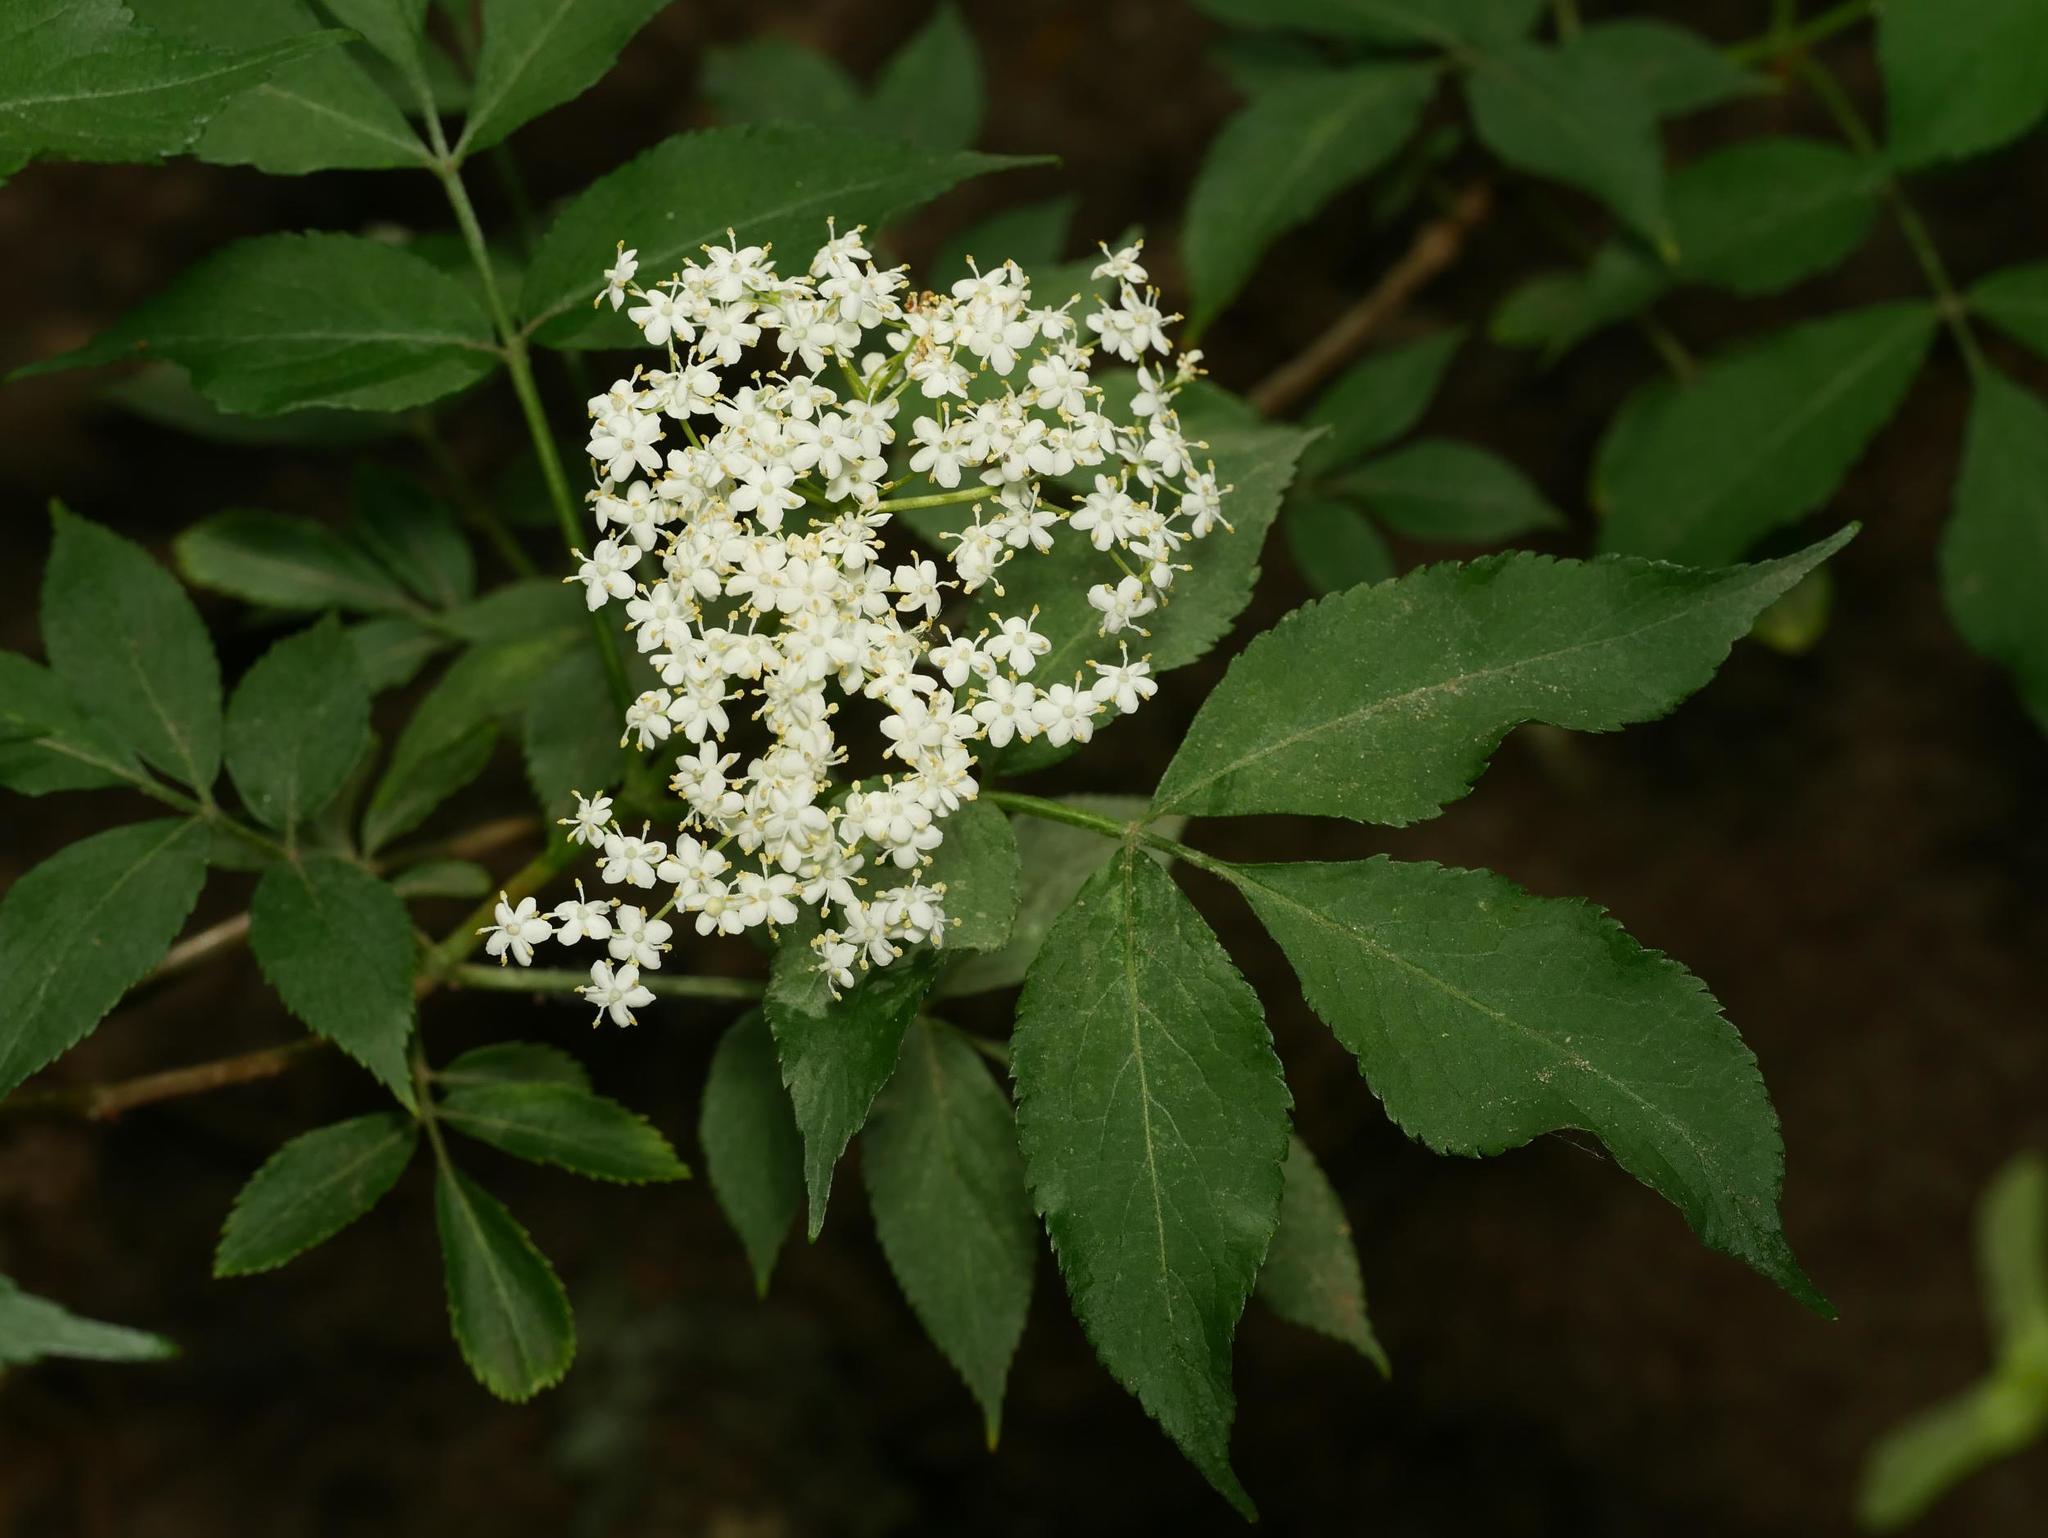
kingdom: Plantae
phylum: Tracheophyta
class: Magnoliopsida
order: Dipsacales
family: Viburnaceae
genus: Sambucus
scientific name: Sambucus nigra
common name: Elder
